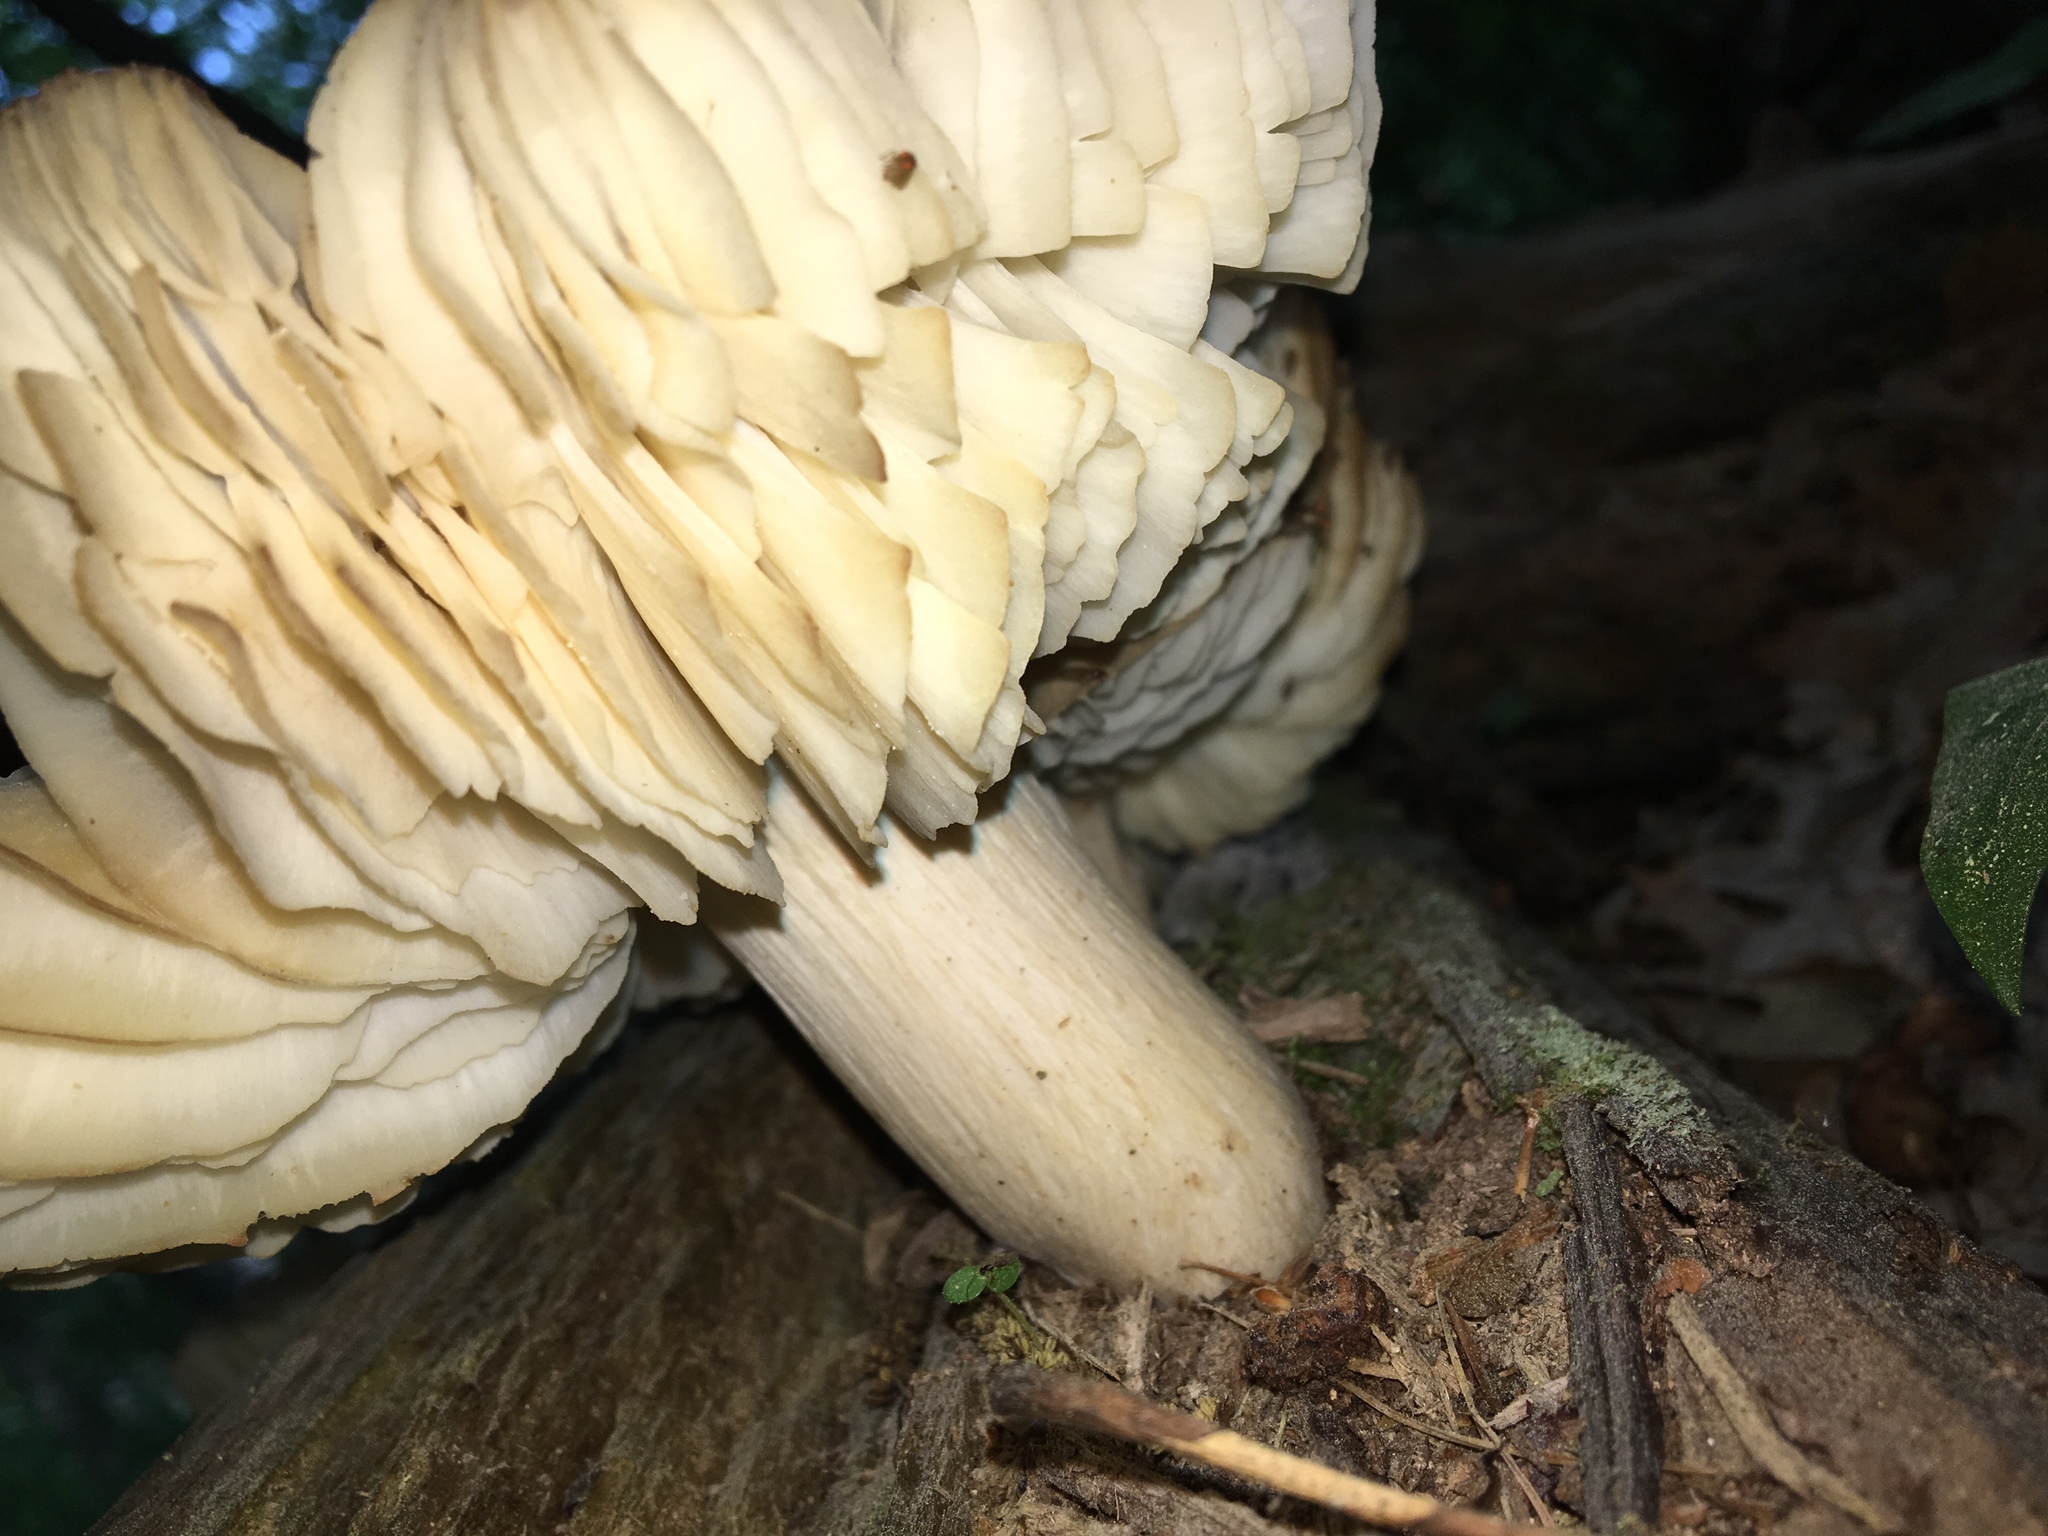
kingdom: Fungi
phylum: Basidiomycota
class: Agaricomycetes
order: Agaricales
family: Tricholomataceae
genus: Megacollybia
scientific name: Megacollybia rodmanii
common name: Eastern american platterful mushroom
